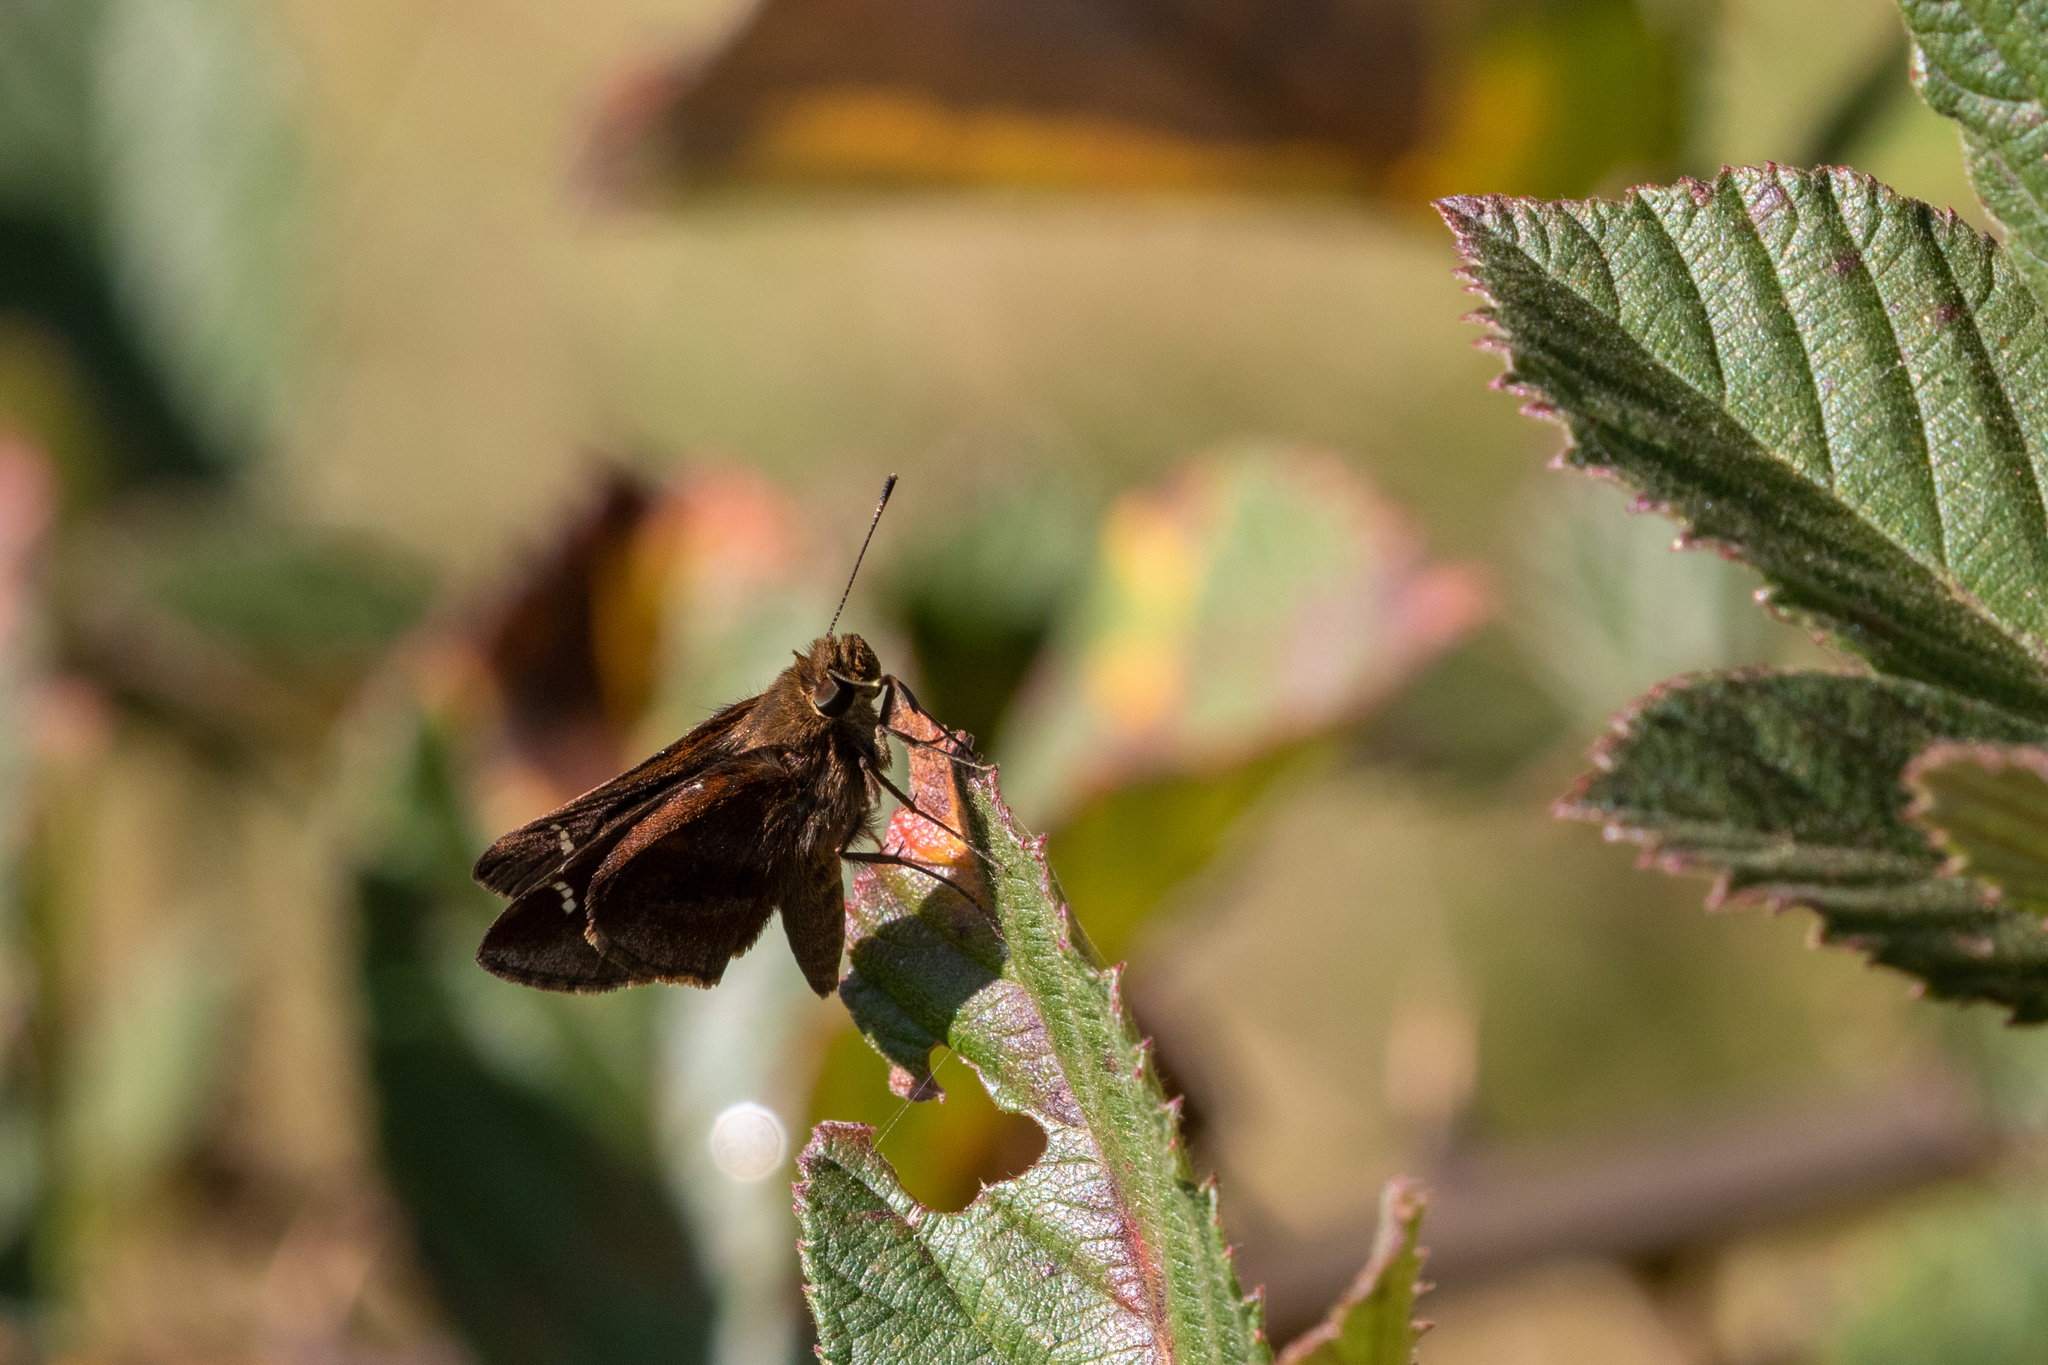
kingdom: Animalia
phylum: Arthropoda
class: Insecta
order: Lepidoptera
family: Hesperiidae
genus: Lerema
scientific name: Lerema accius
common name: Clouded skipper
